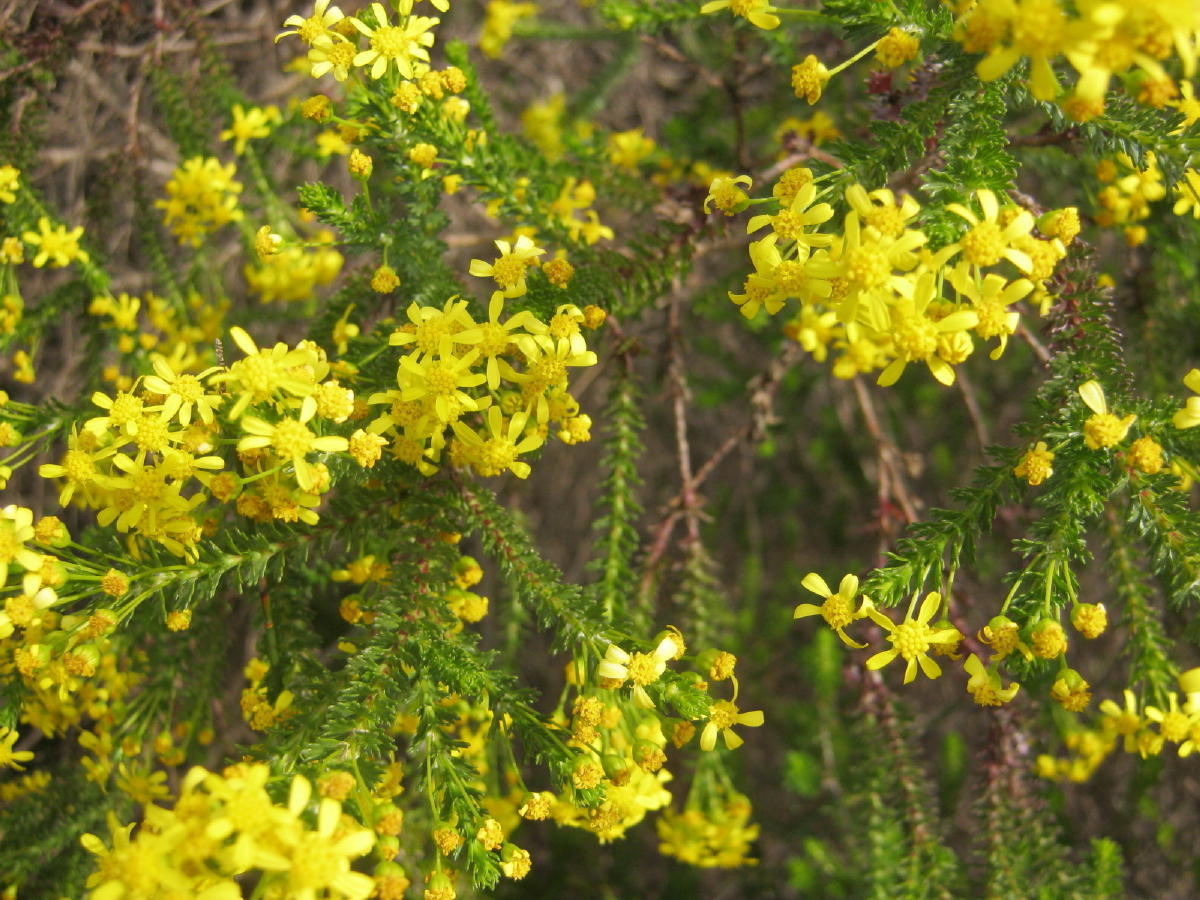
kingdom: Plantae
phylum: Tracheophyta
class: Magnoliopsida
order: Asterales
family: Asteraceae
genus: Euryops
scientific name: Euryops virgineus
